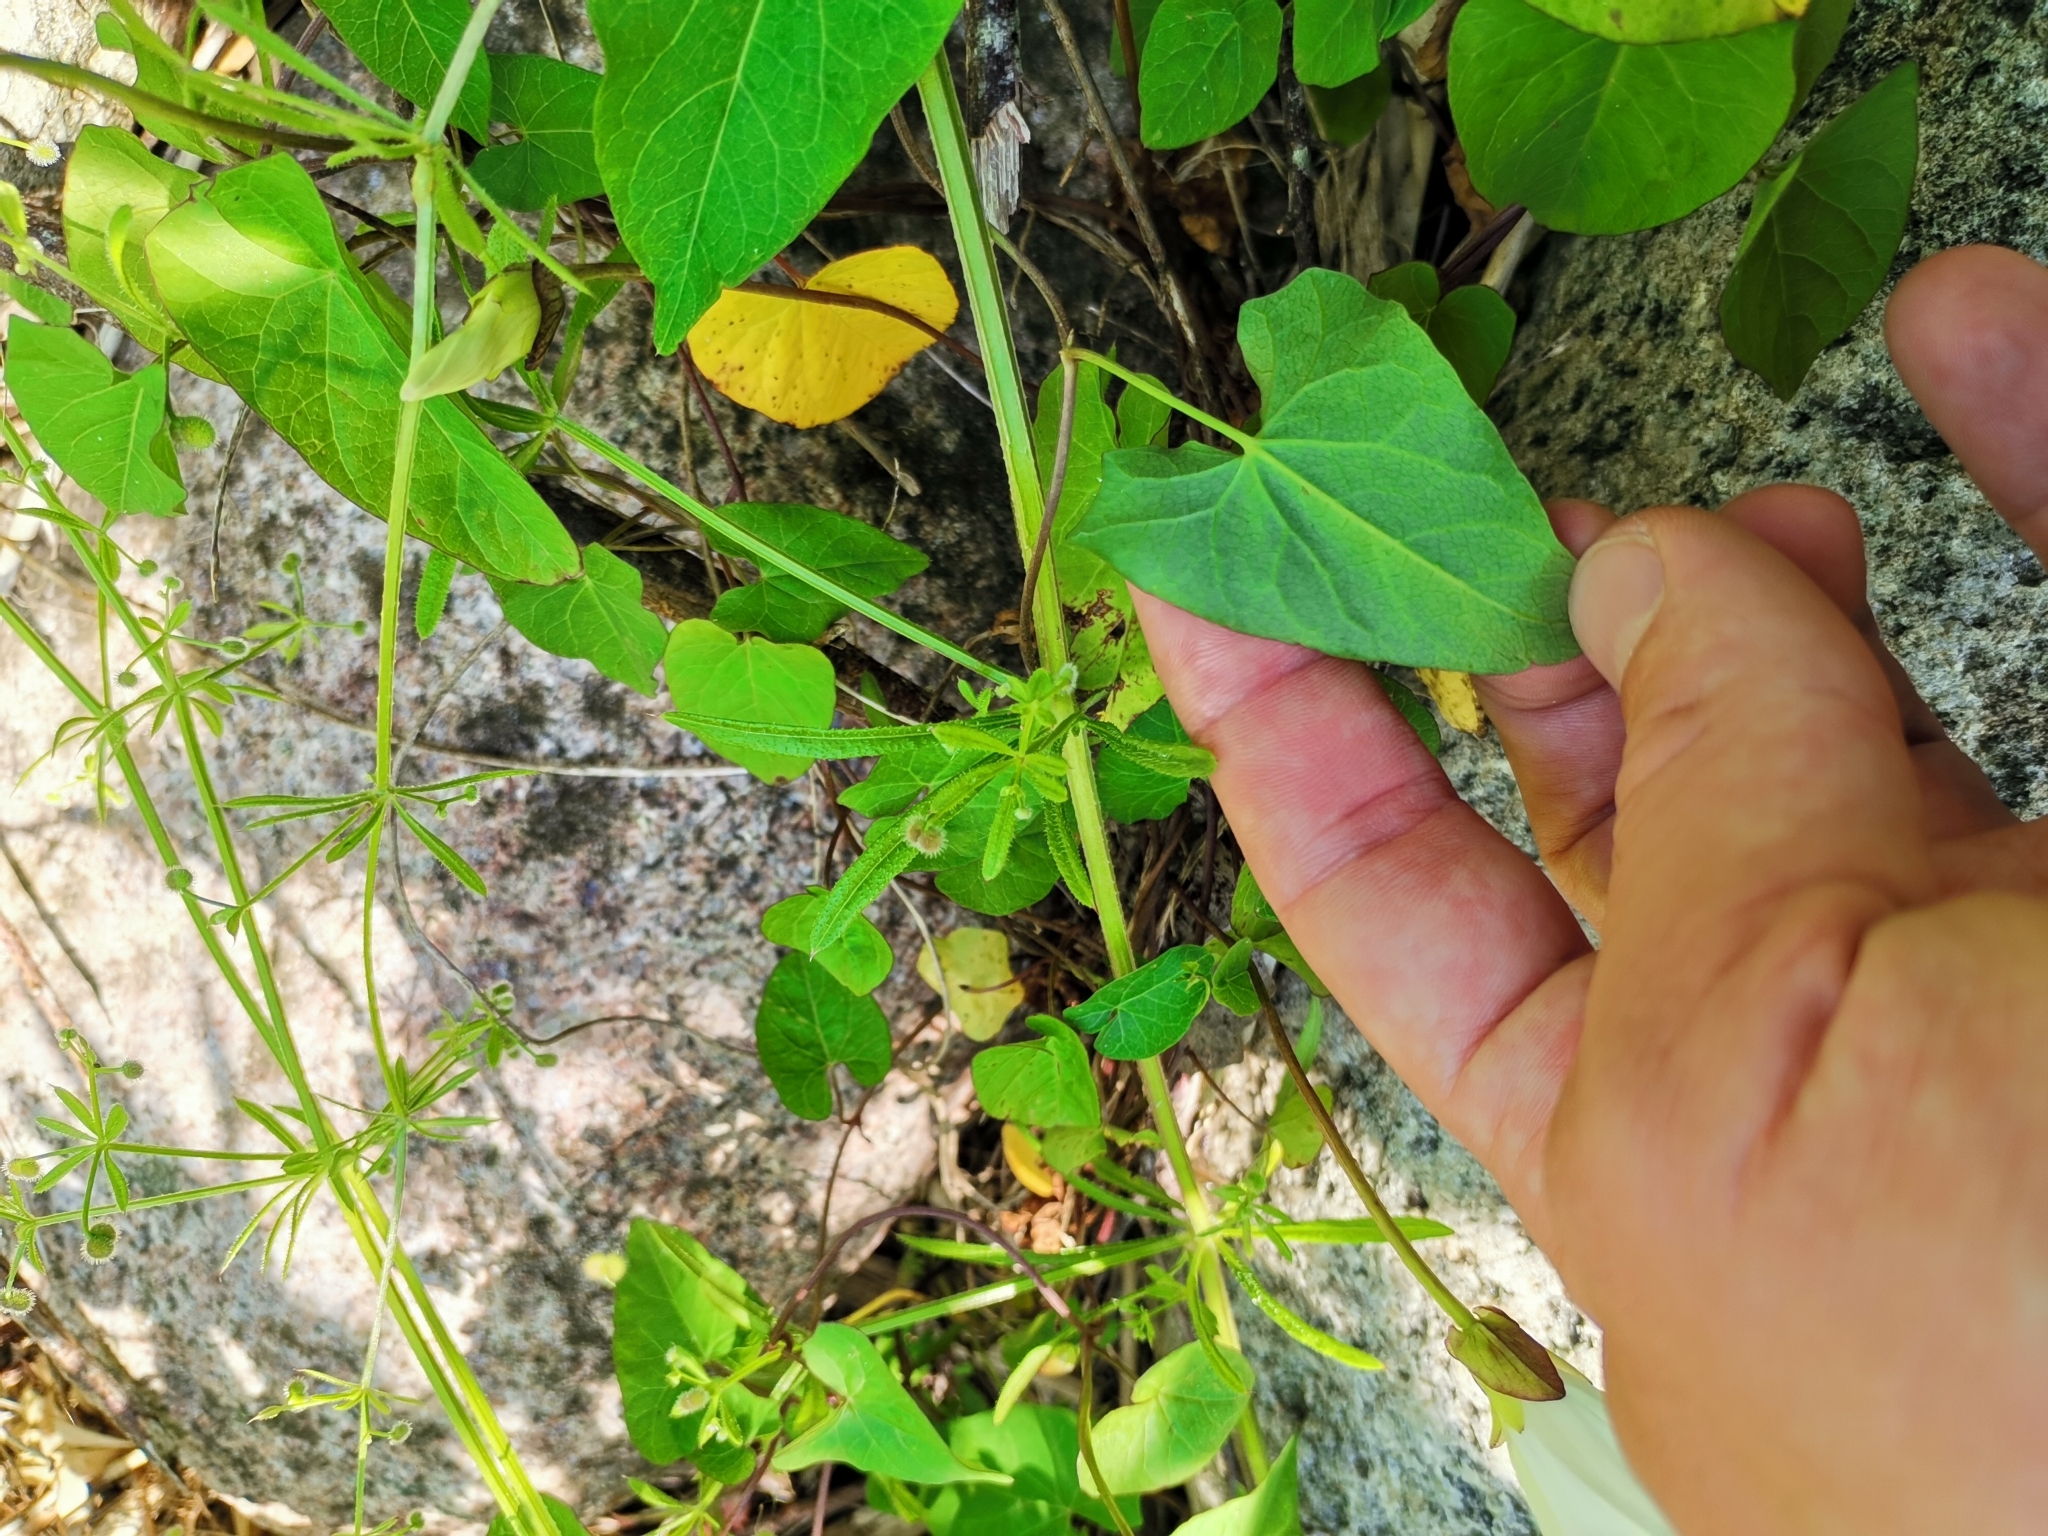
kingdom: Plantae
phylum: Tracheophyta
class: Magnoliopsida
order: Solanales
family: Convolvulaceae
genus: Calystegia
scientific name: Calystegia sepium
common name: Hedge bindweed
